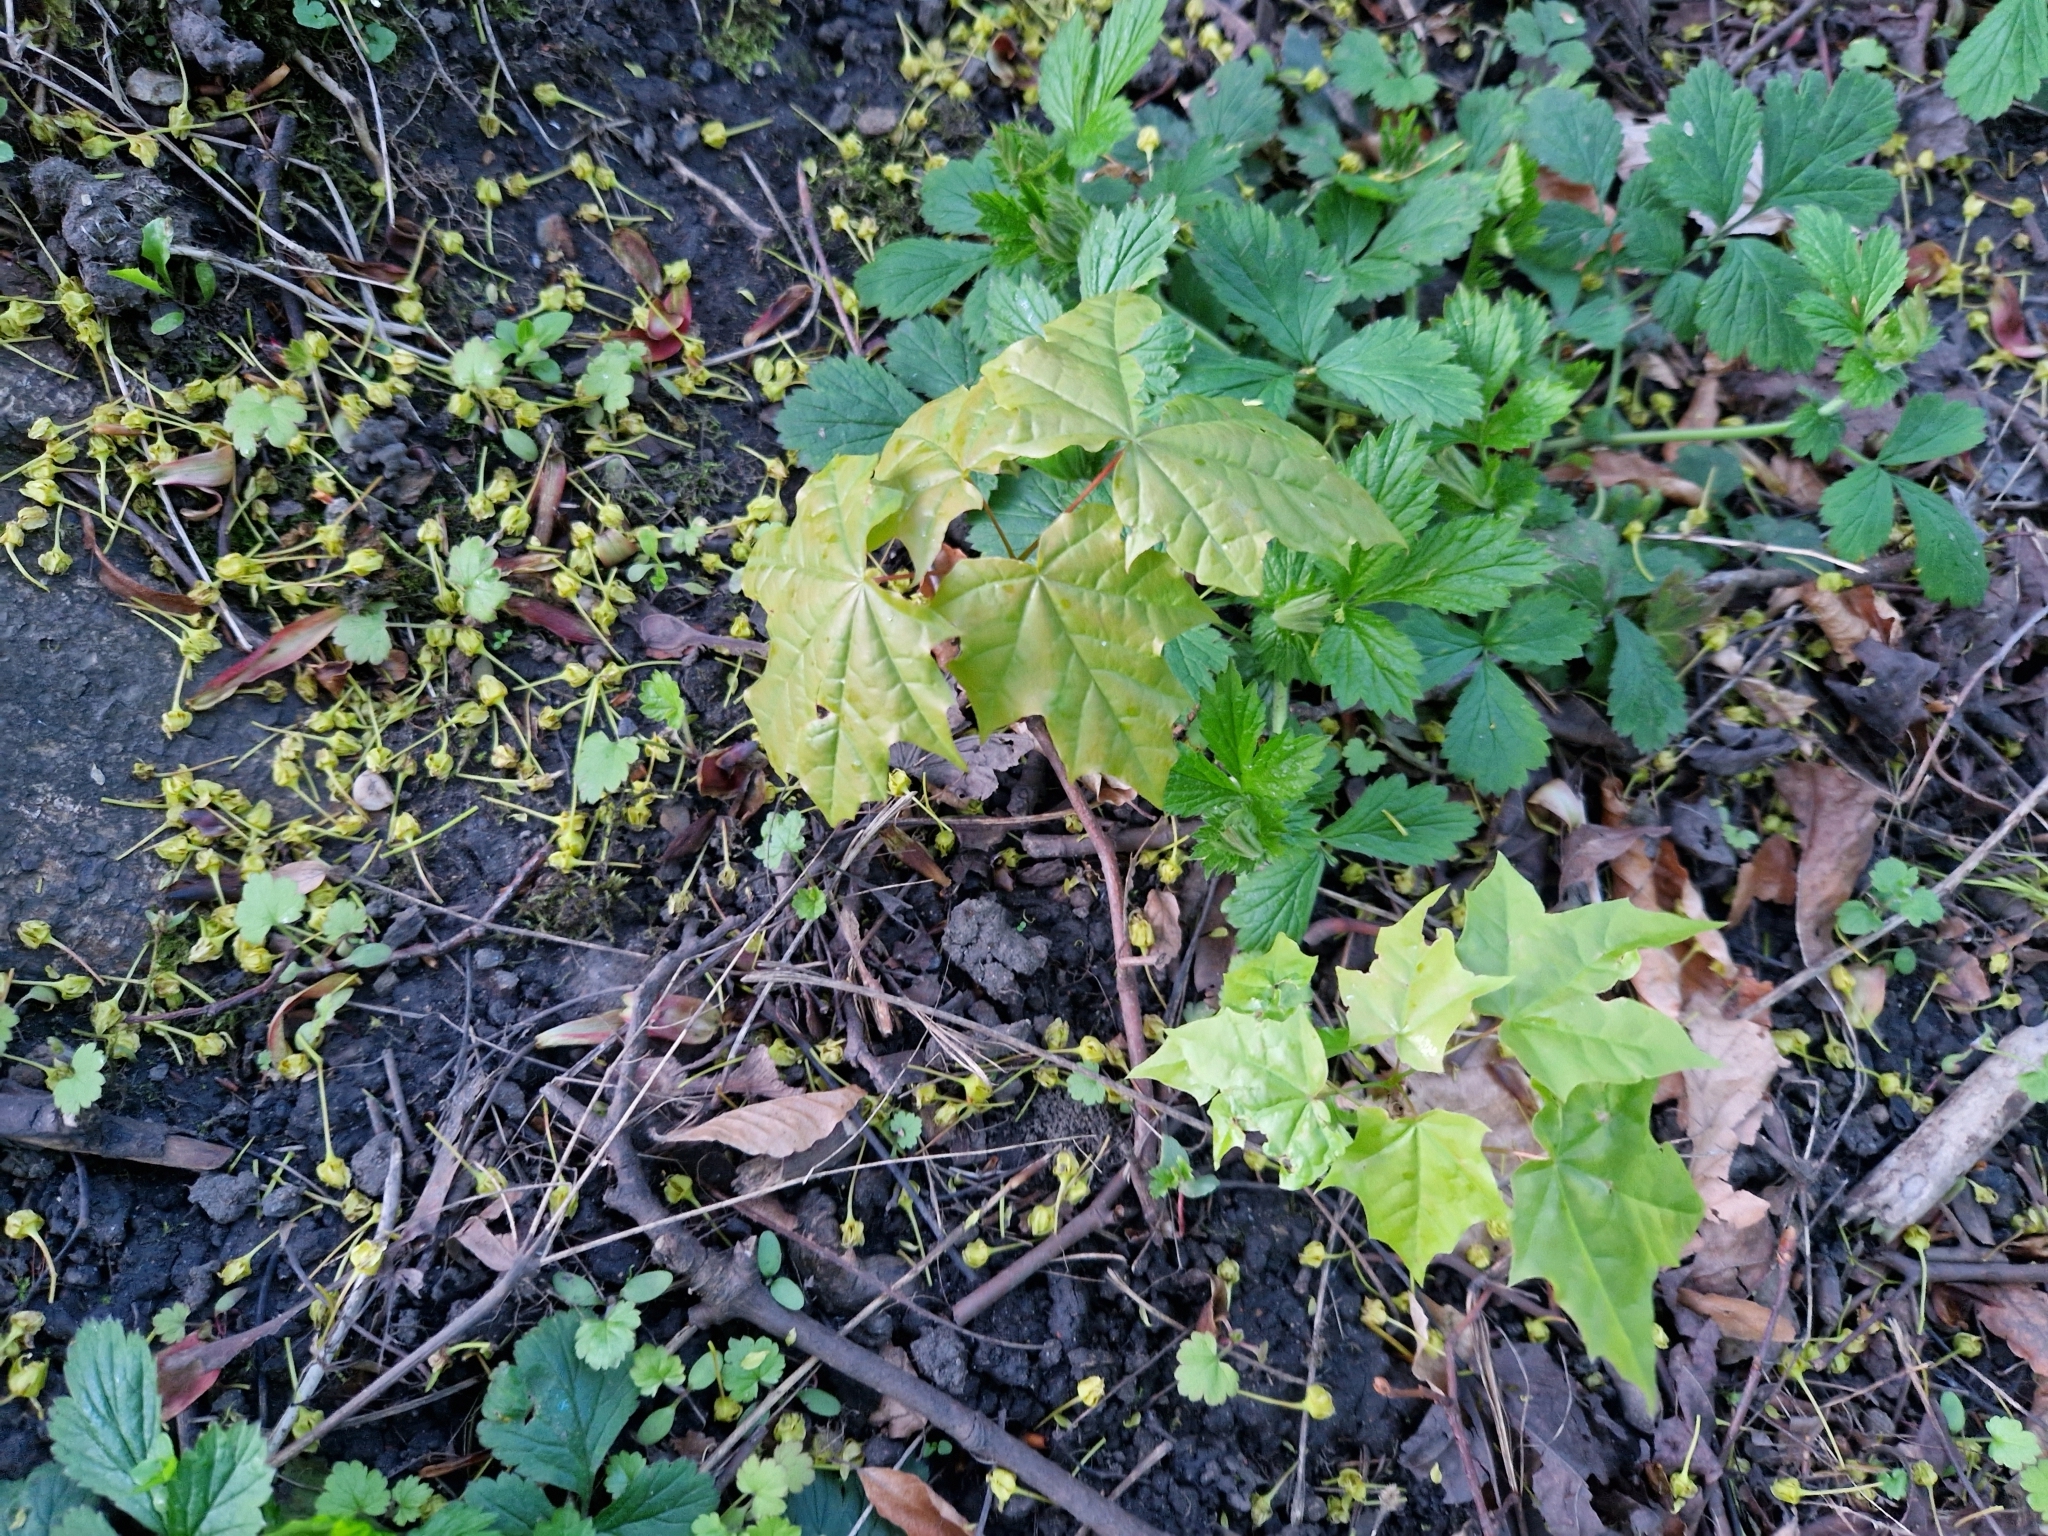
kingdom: Plantae
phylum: Tracheophyta
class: Magnoliopsida
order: Sapindales
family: Sapindaceae
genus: Acer
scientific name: Acer platanoides
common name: Norway maple
